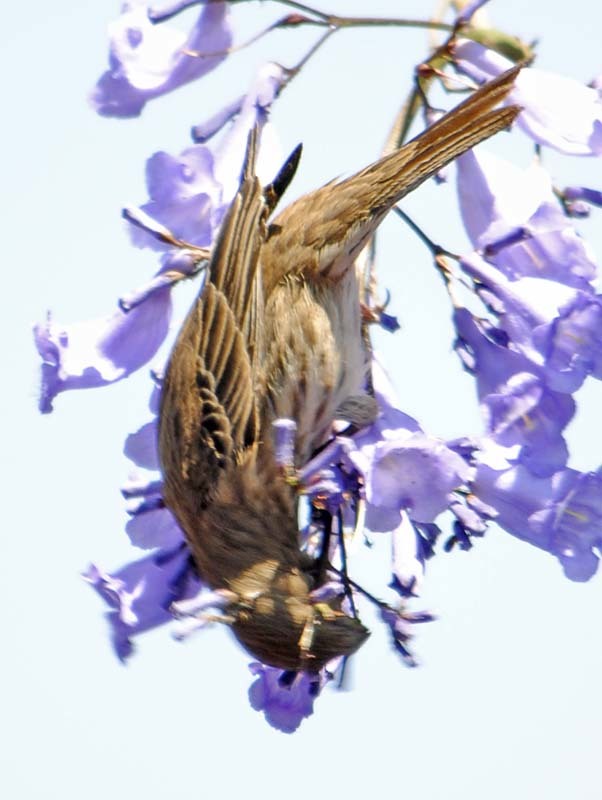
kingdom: Animalia
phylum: Chordata
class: Aves
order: Passeriformes
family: Fringillidae
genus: Haemorhous
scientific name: Haemorhous mexicanus
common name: House finch
